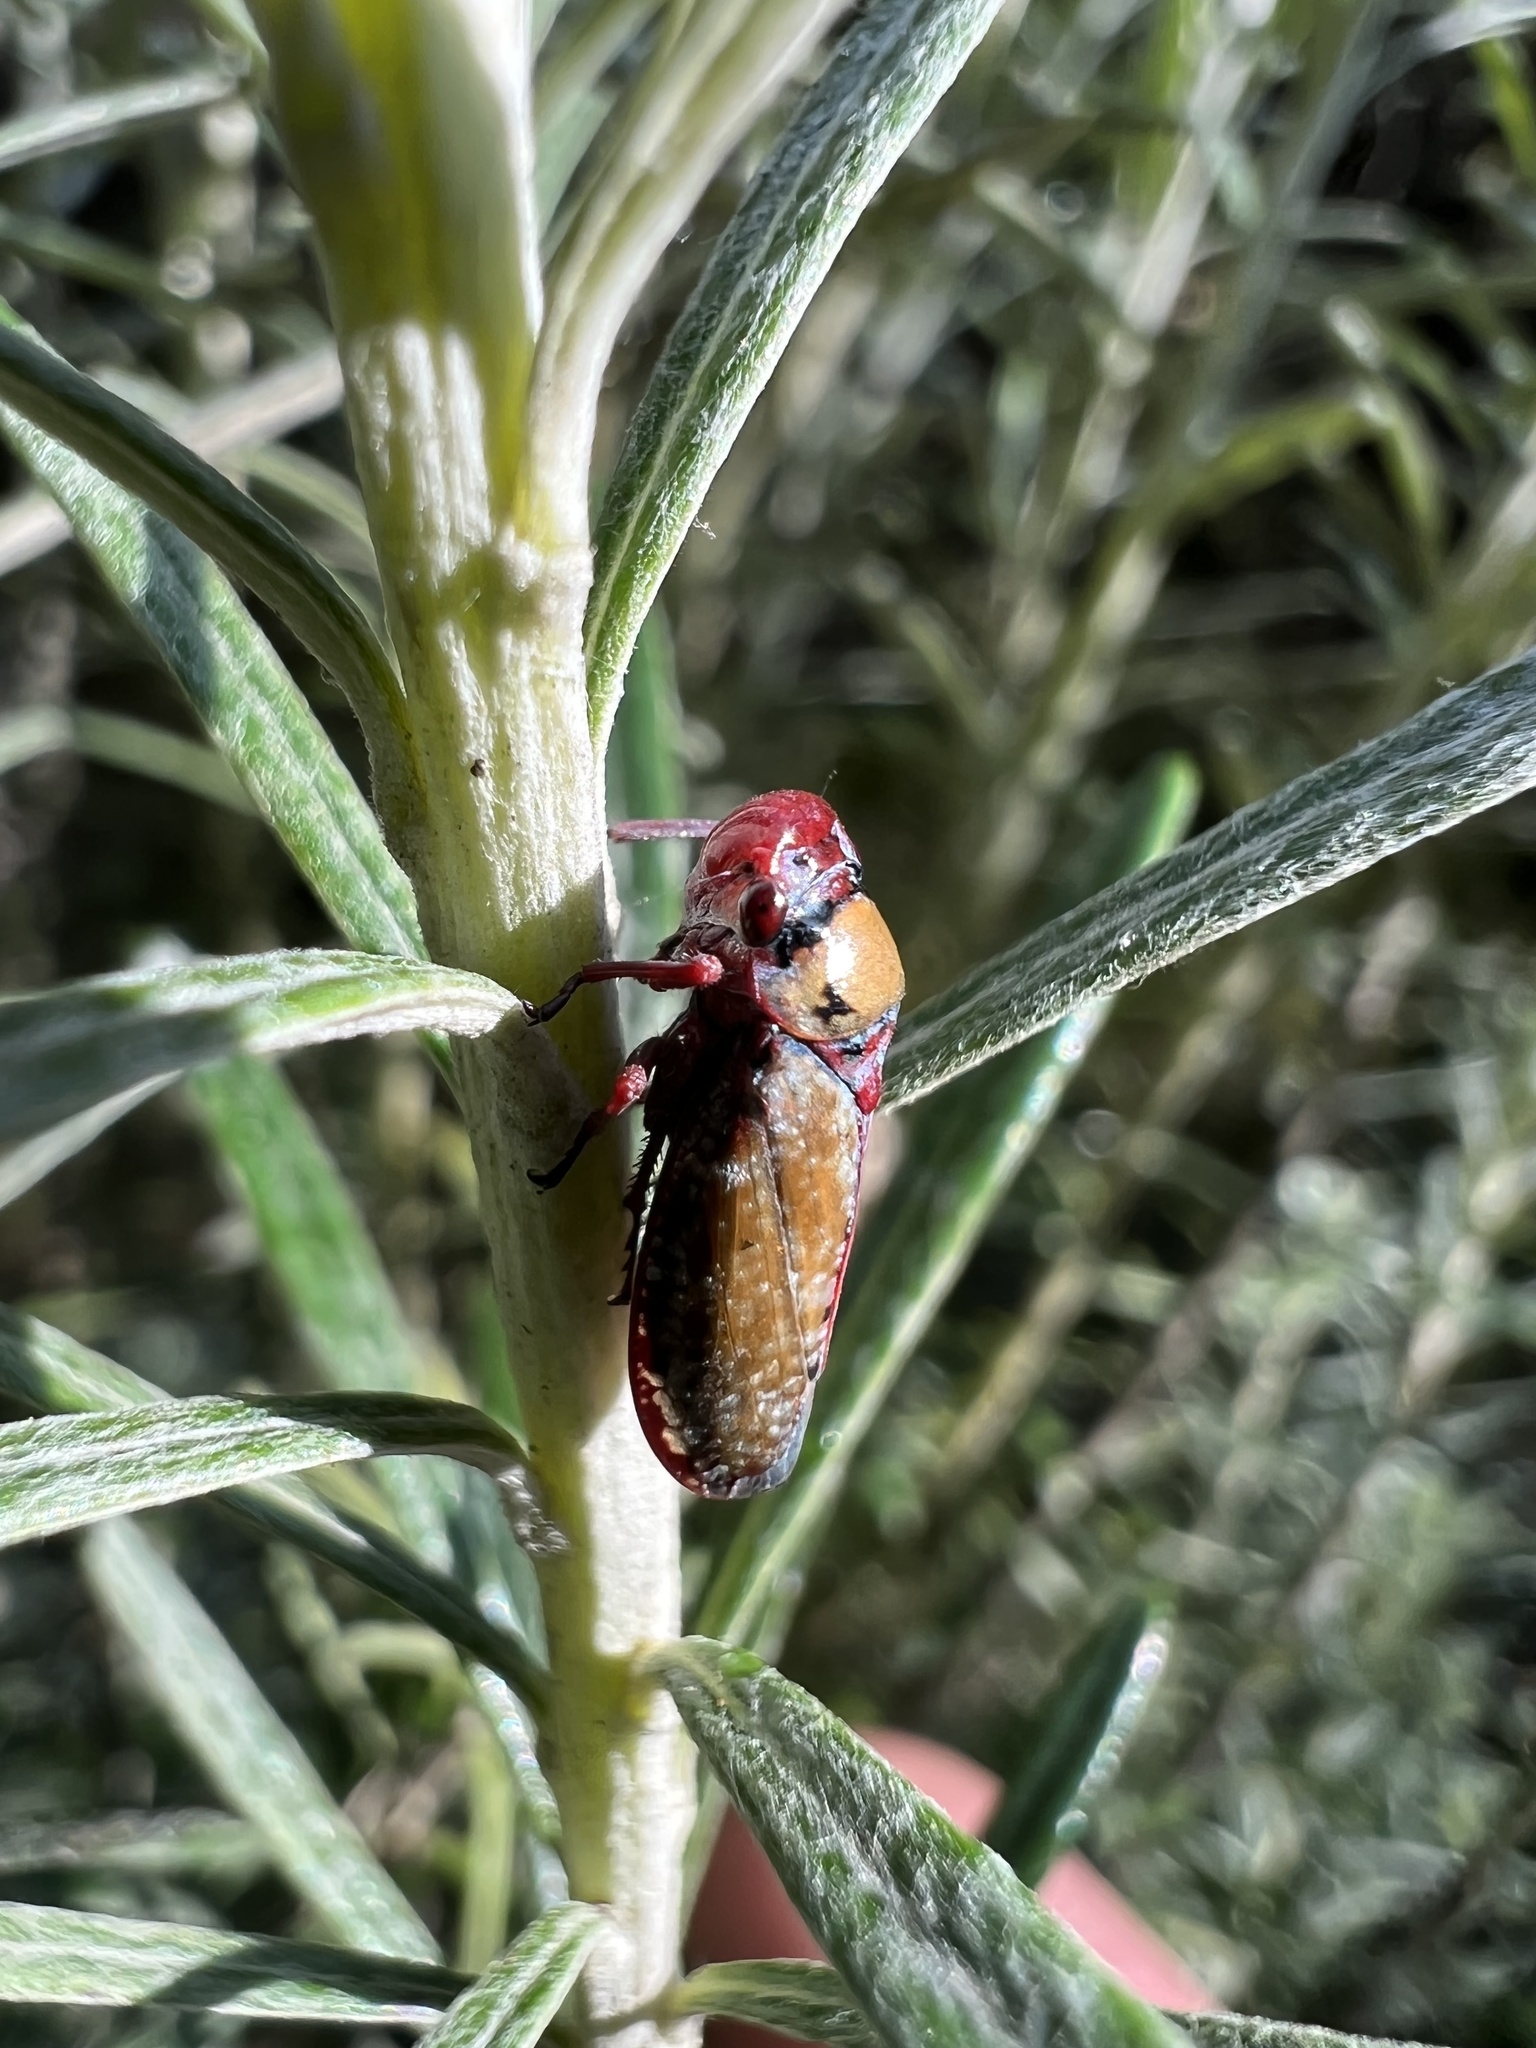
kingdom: Animalia
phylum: Arthropoda
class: Insecta
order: Hemiptera
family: Cicadellidae
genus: Paracatua
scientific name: Paracatua rubrolimbata
